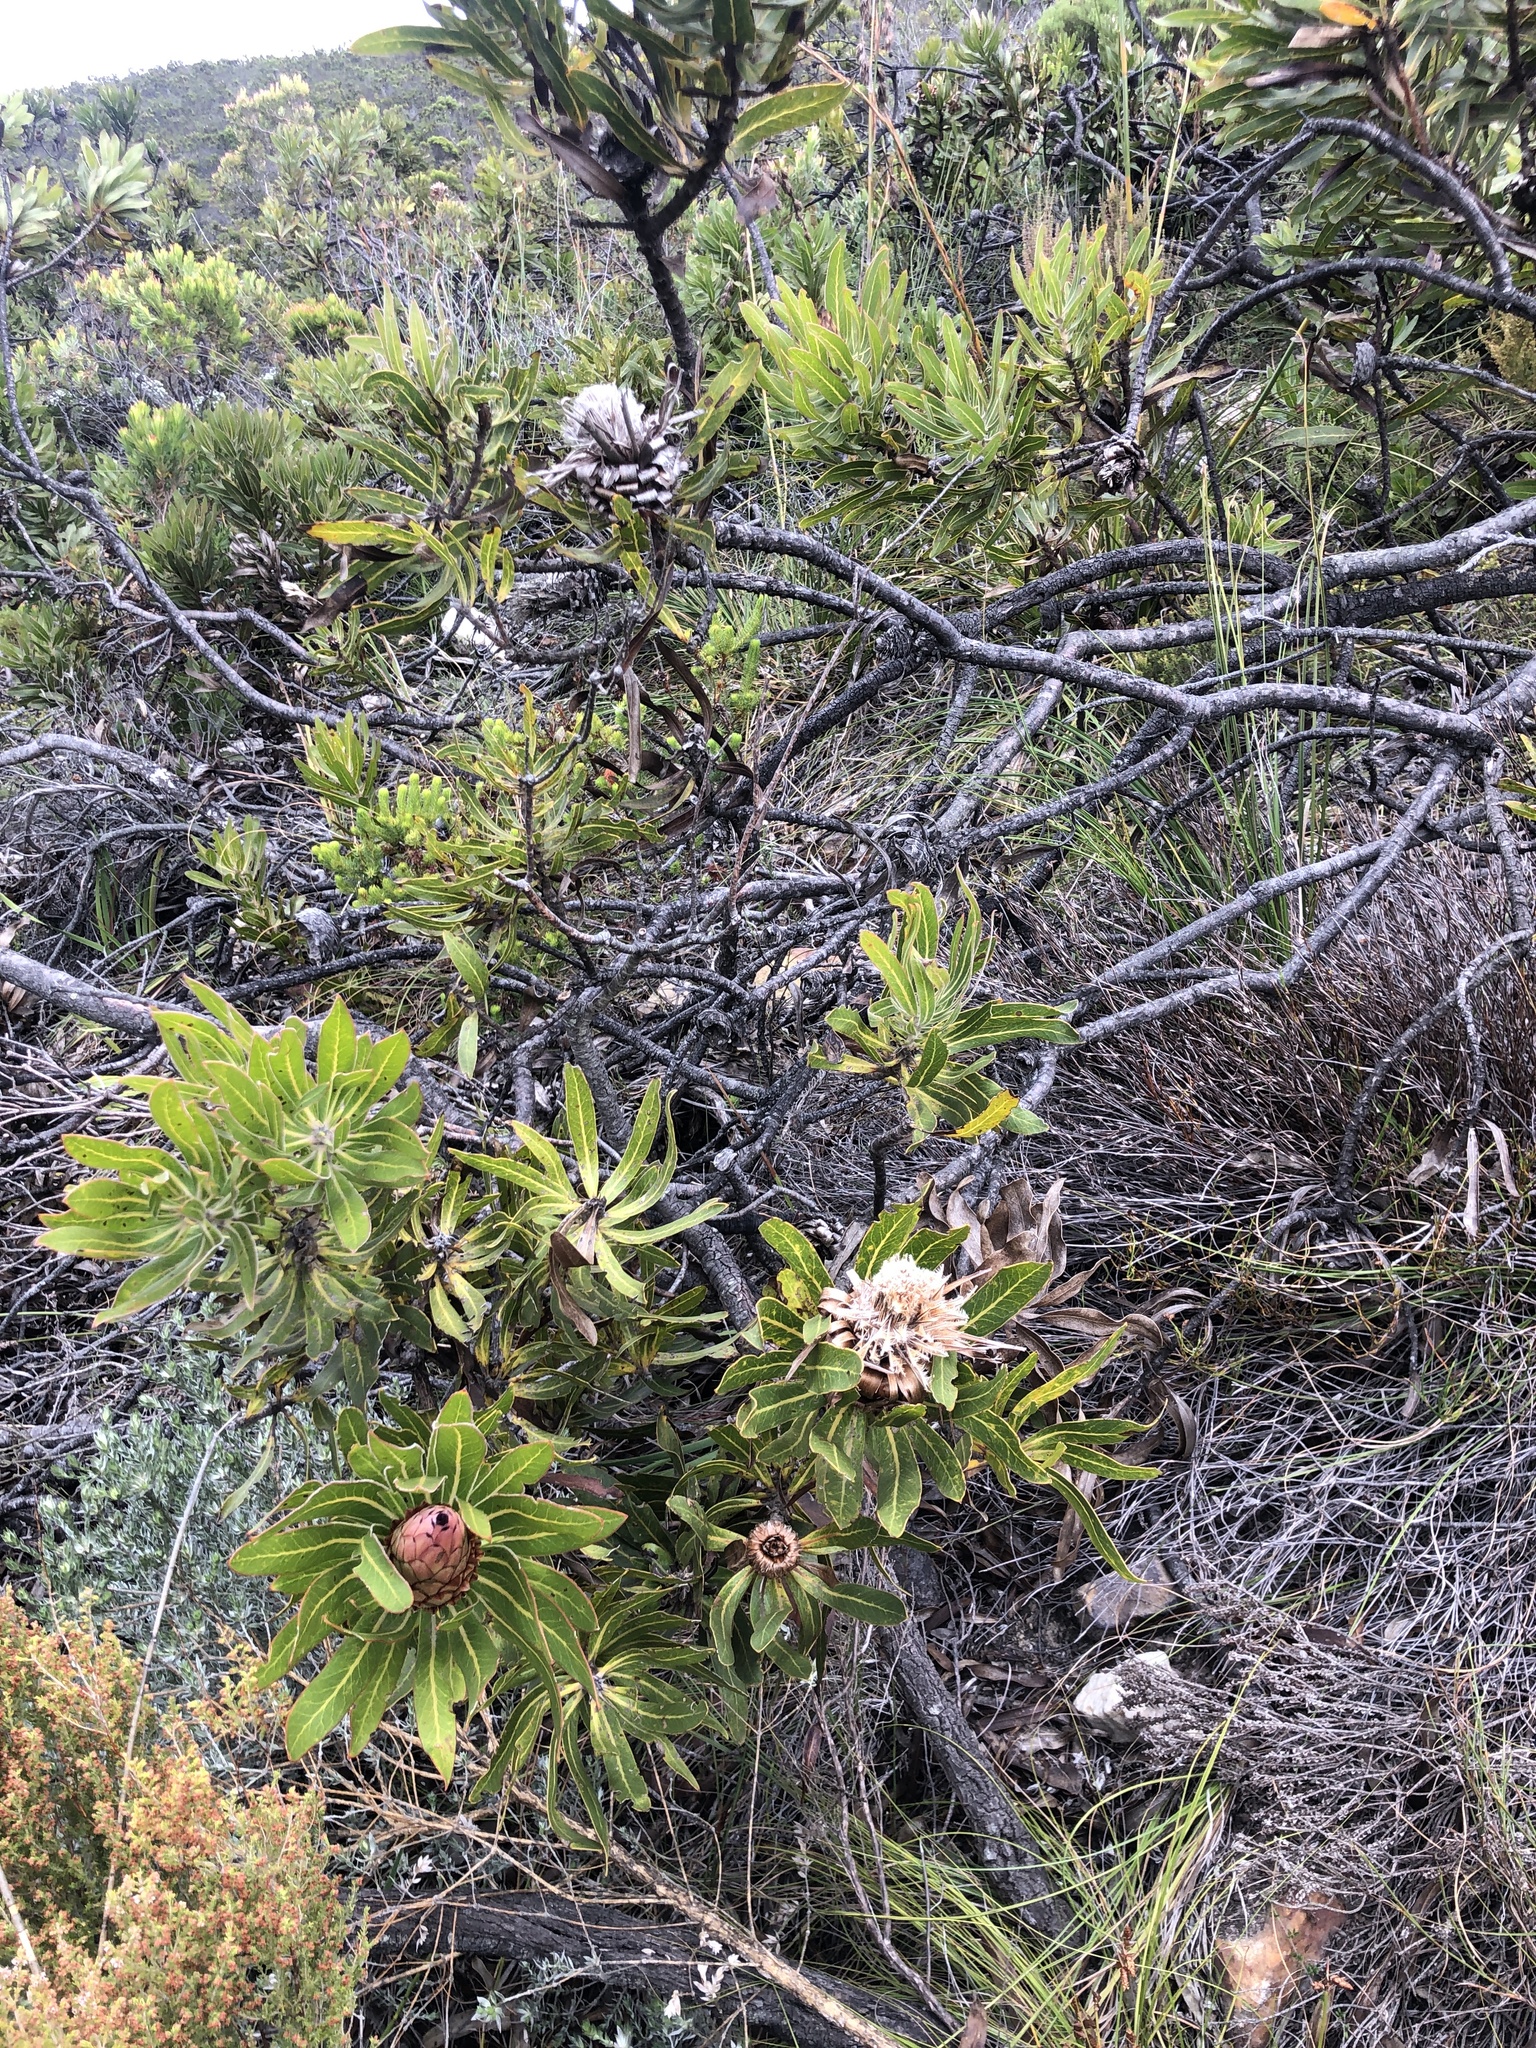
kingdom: Plantae
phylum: Tracheophyta
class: Magnoliopsida
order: Proteales
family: Proteaceae
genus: Protea
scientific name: Protea neriifolia
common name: Blue sugarbush
